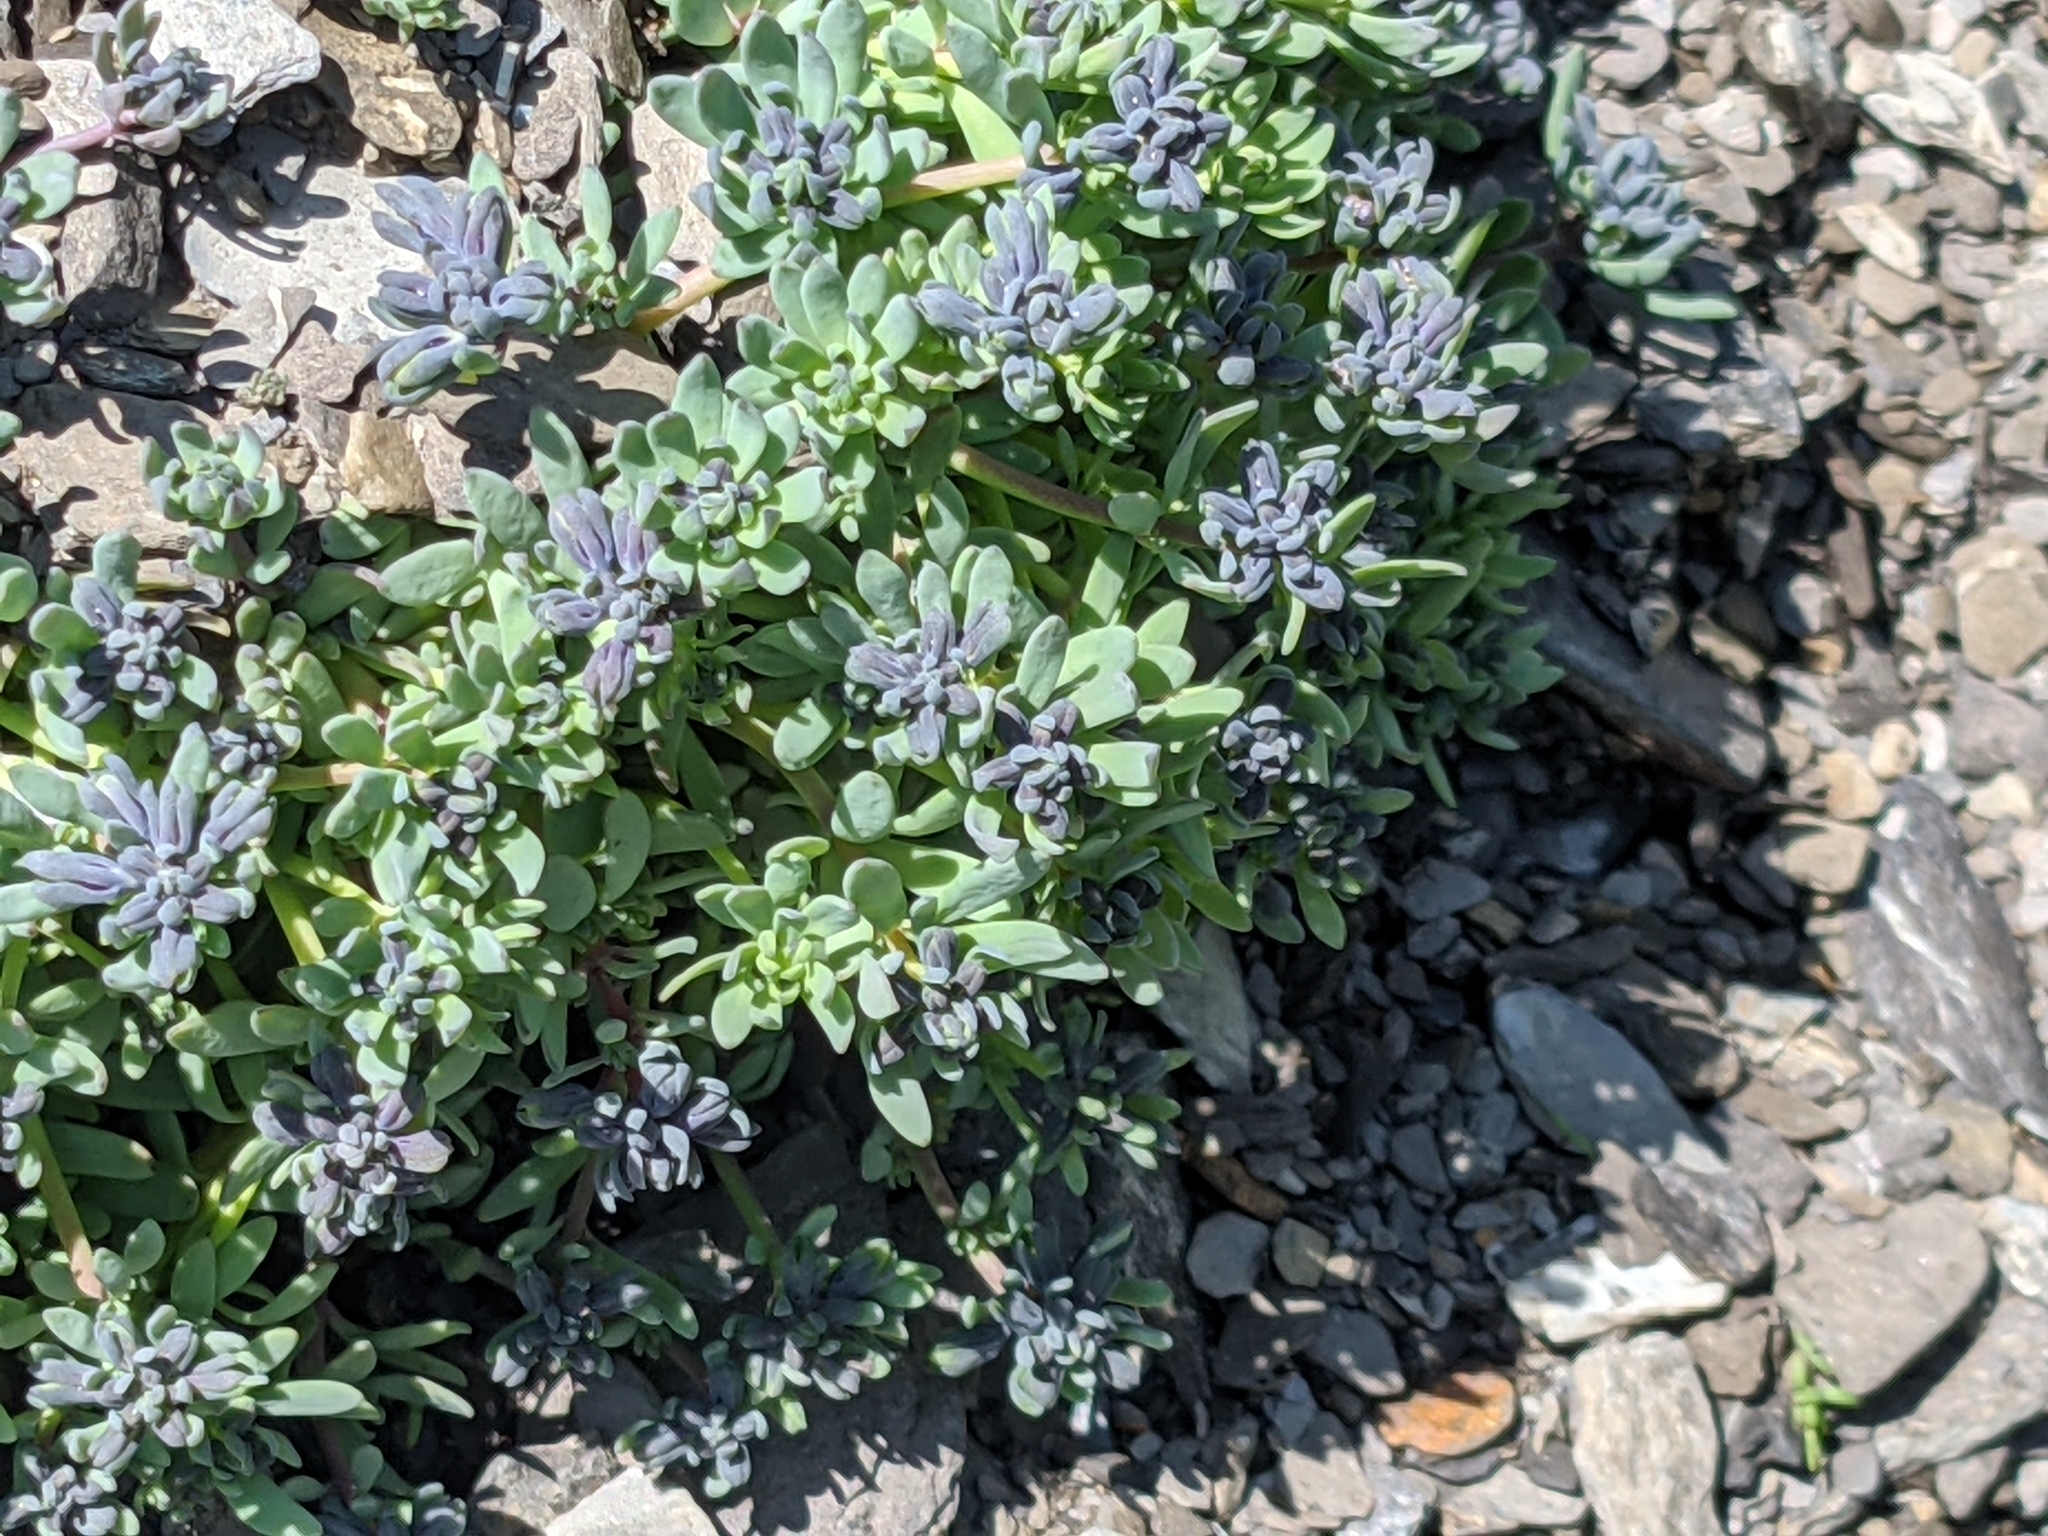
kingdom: Plantae
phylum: Tracheophyta
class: Magnoliopsida
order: Lamiales
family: Plantaginaceae
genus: Linaria
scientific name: Linaria alpina
